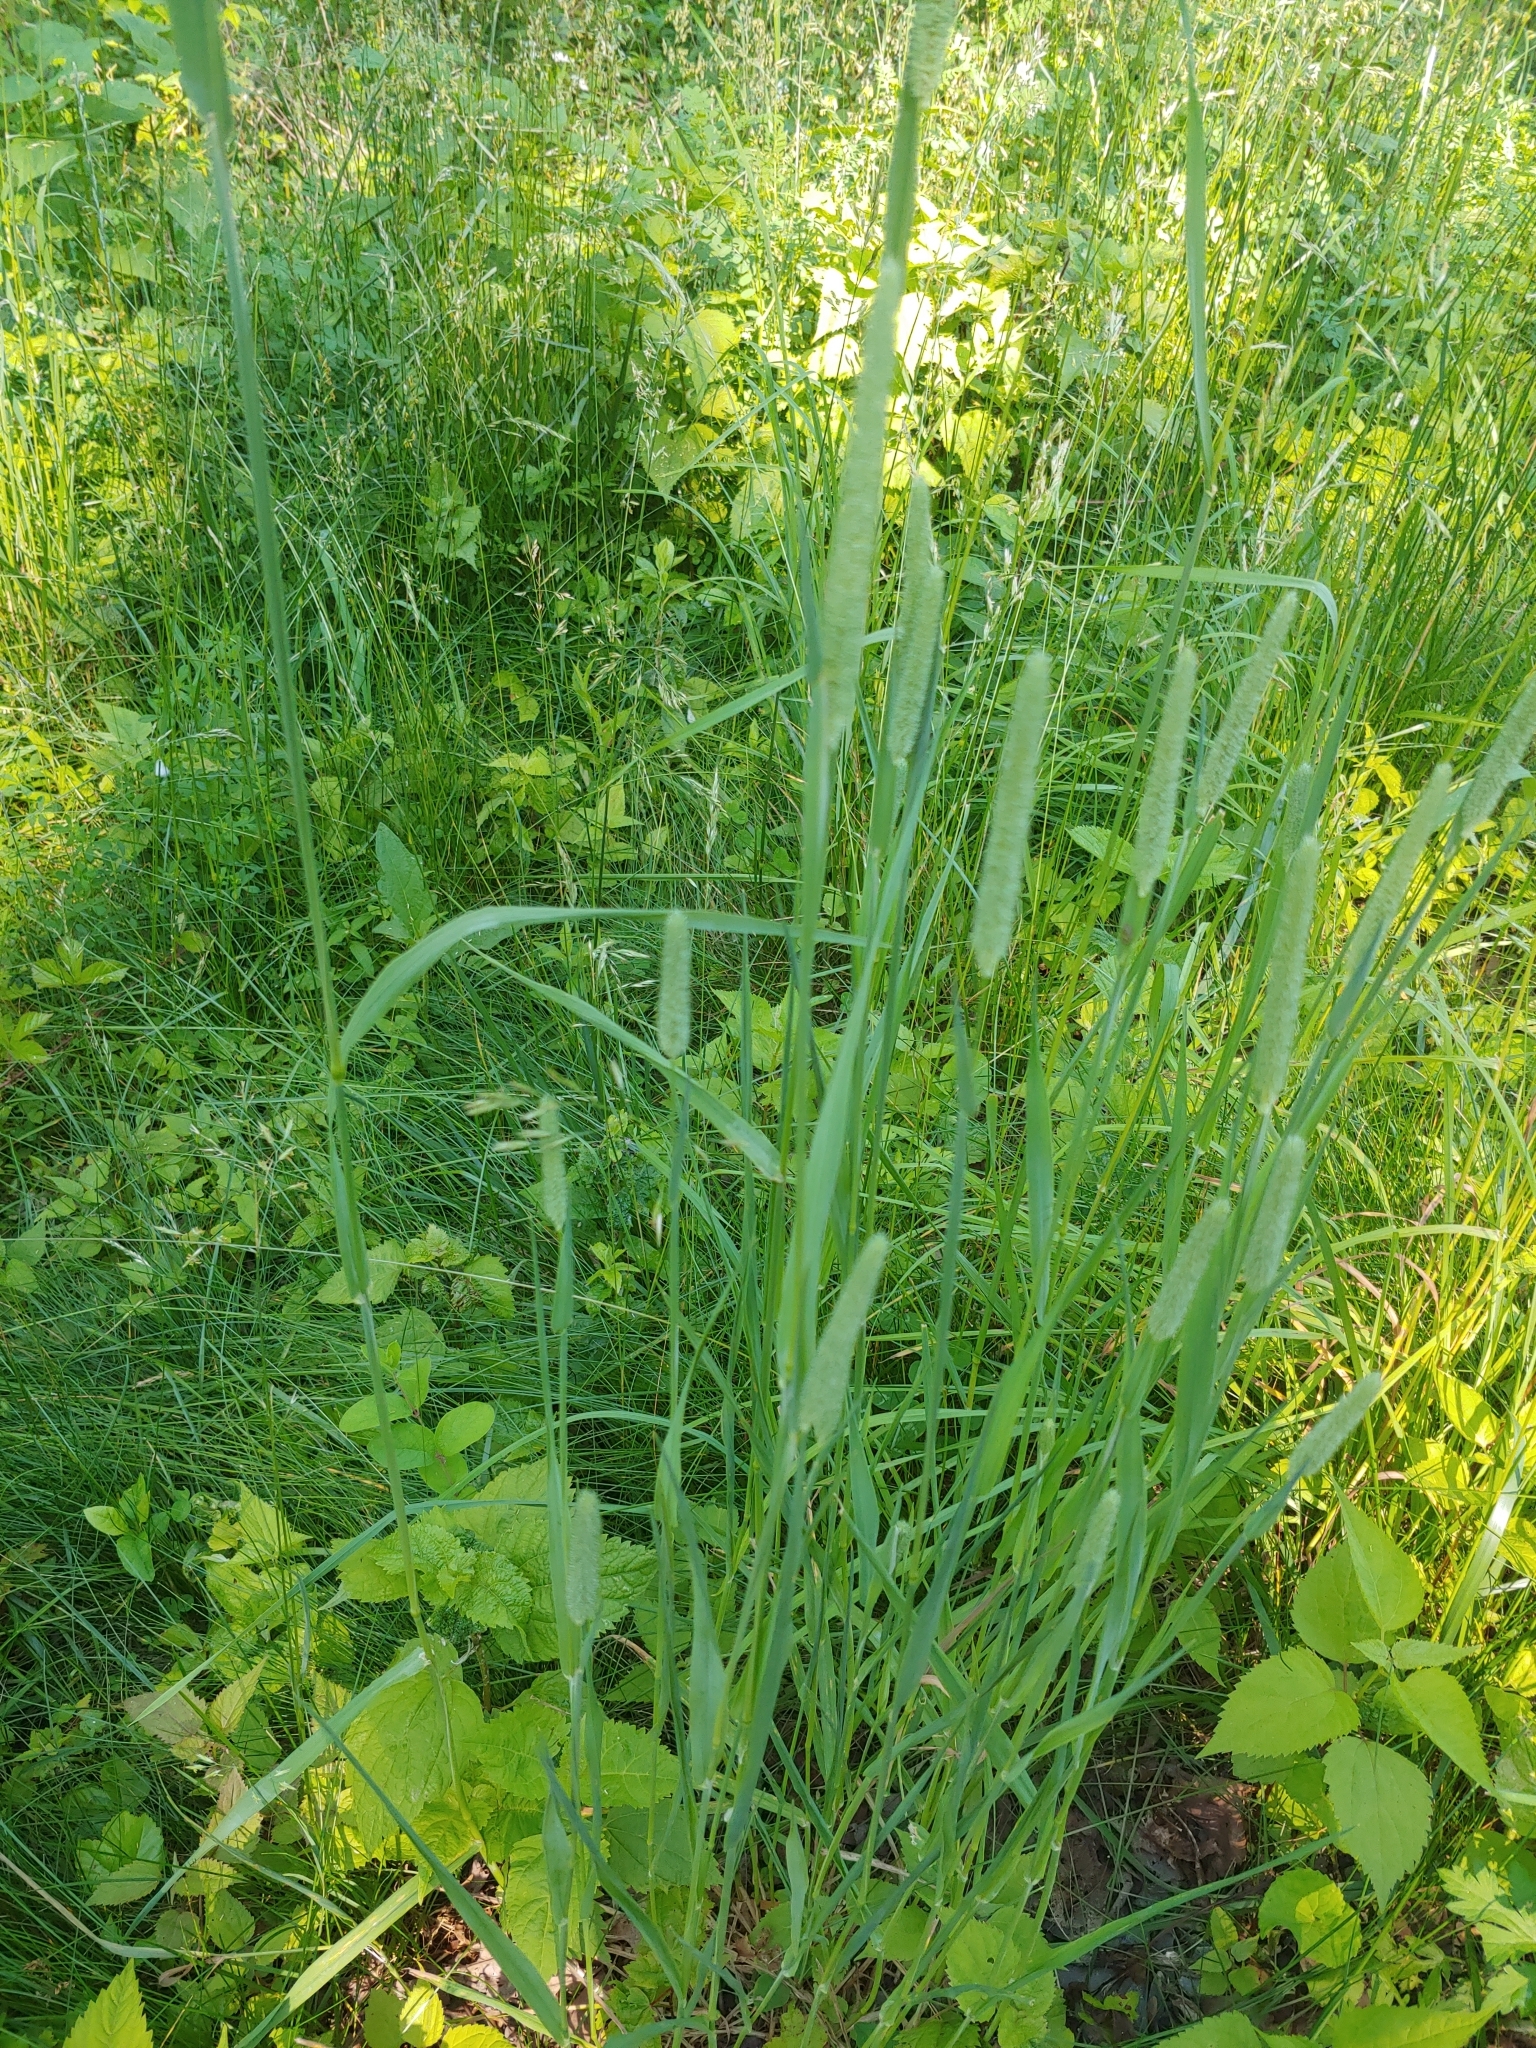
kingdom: Plantae
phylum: Tracheophyta
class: Liliopsida
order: Poales
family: Poaceae
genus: Phleum
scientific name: Phleum pratense
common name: Timothy grass
